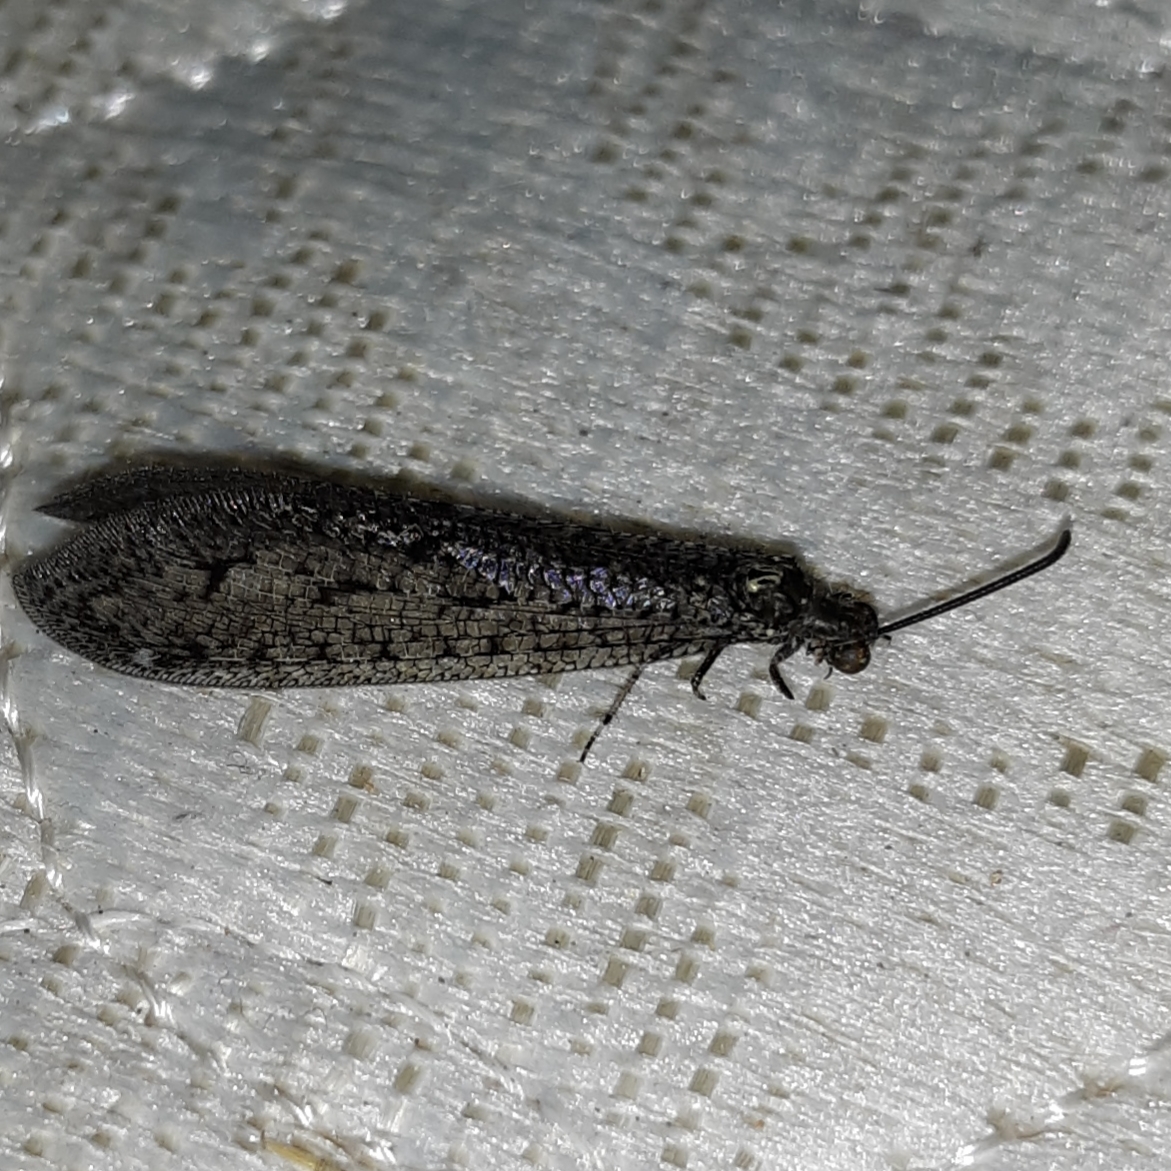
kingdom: Animalia
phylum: Arthropoda
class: Insecta
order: Neuroptera
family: Myrmeleontidae
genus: Brachynemurus
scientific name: Brachynemurus nebulosus
